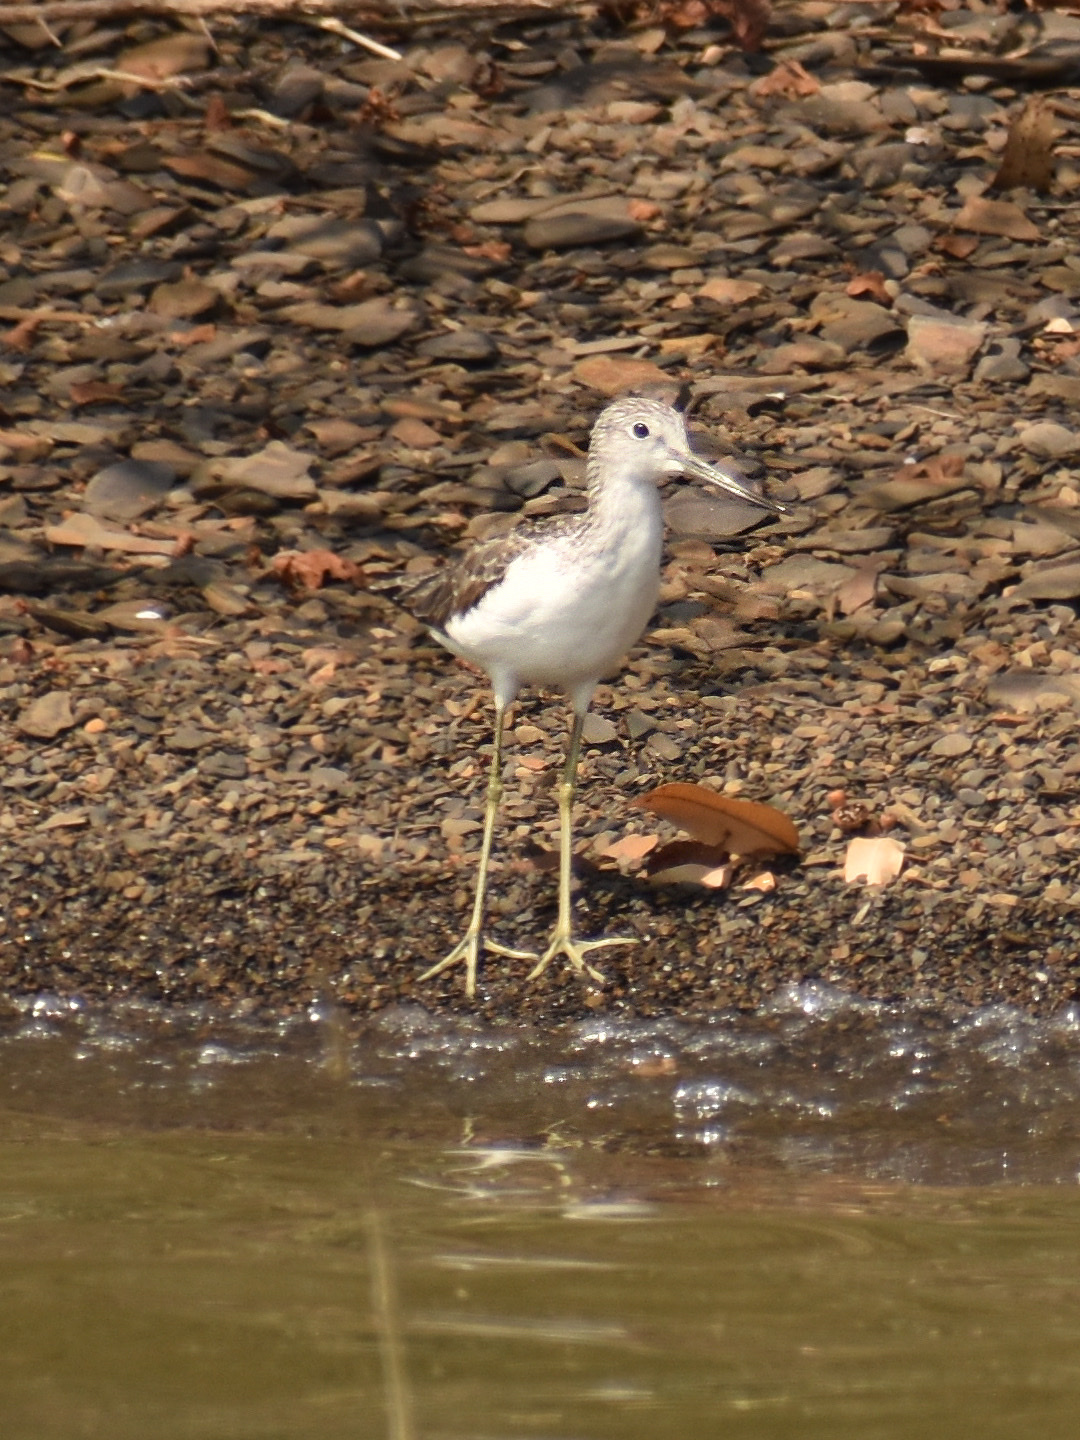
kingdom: Animalia
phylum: Chordata
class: Aves
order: Charadriiformes
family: Scolopacidae
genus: Tringa
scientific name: Tringa nebularia
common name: Common greenshank
